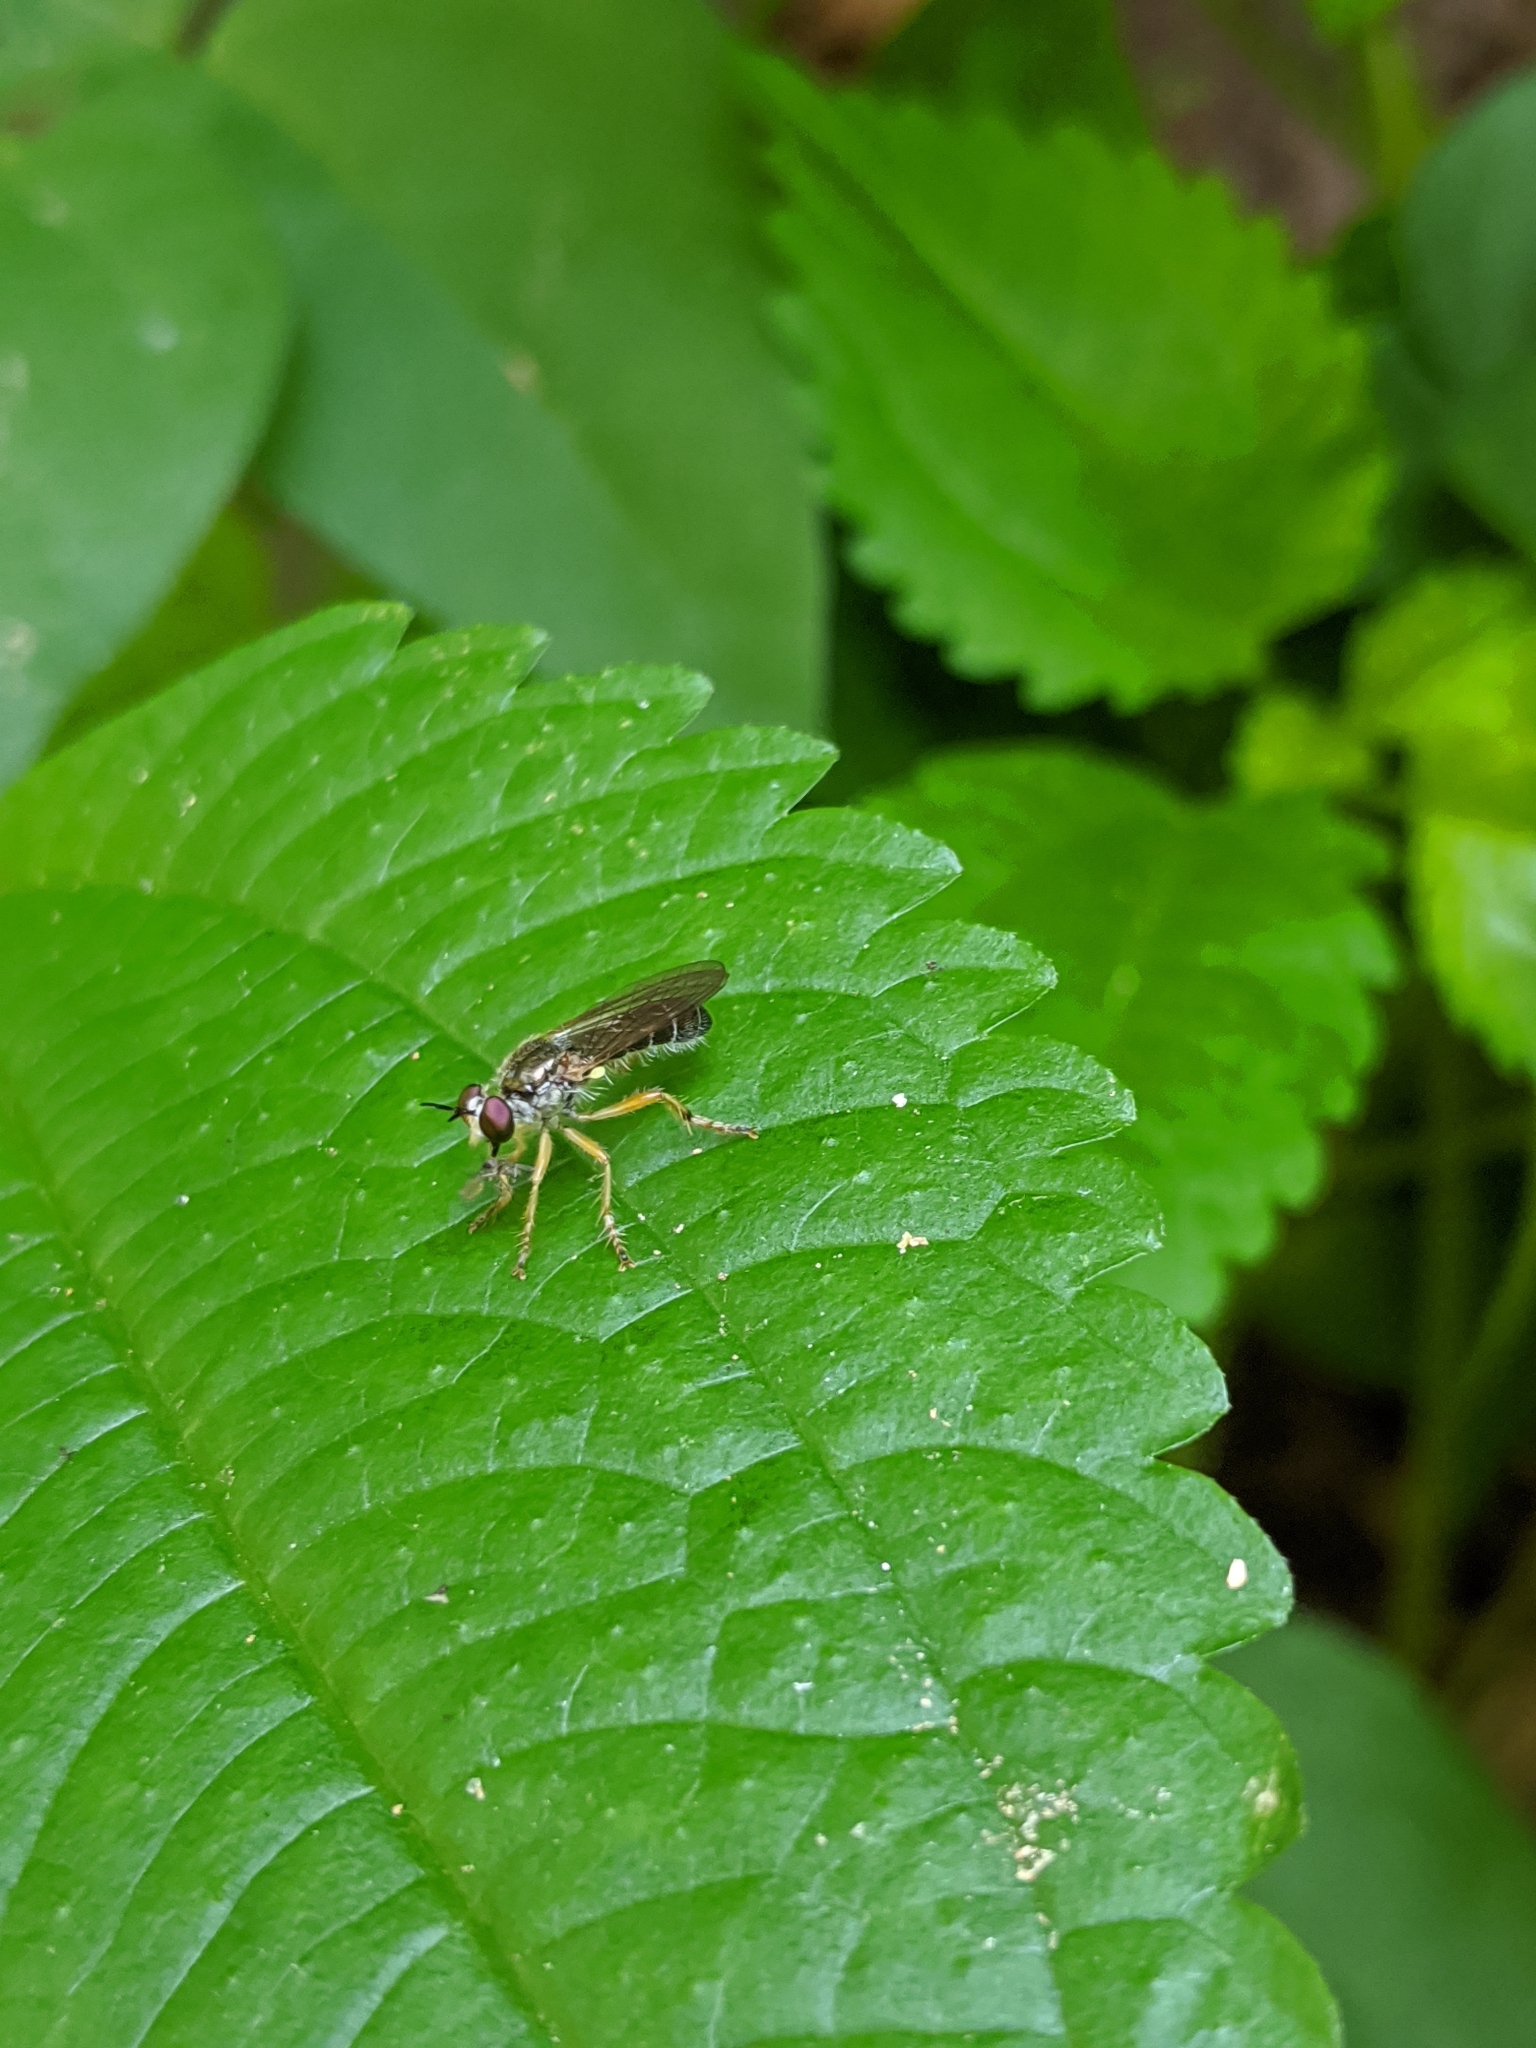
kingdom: Animalia
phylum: Arthropoda
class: Insecta
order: Diptera
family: Asilidae
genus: Atomosia
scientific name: Atomosia rufipes
